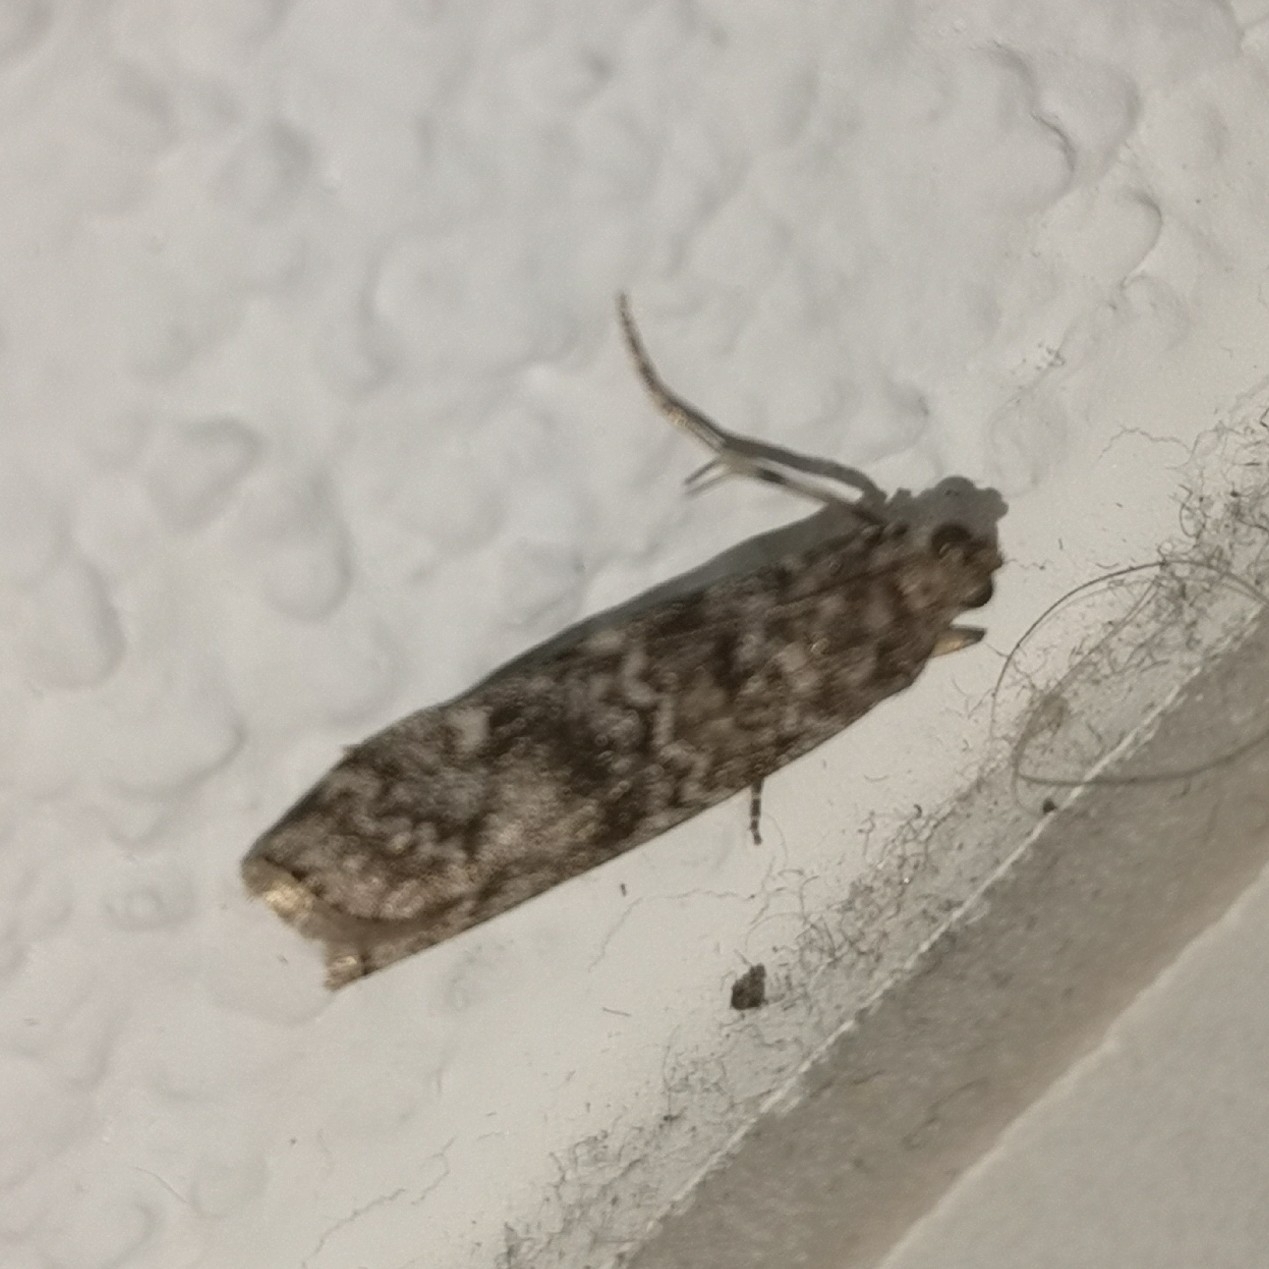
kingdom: Animalia
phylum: Arthropoda
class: Insecta
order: Lepidoptera
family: Pyralidae
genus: Dioryctria
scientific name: Dioryctria schuetzeella
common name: Spruce knot-horn
